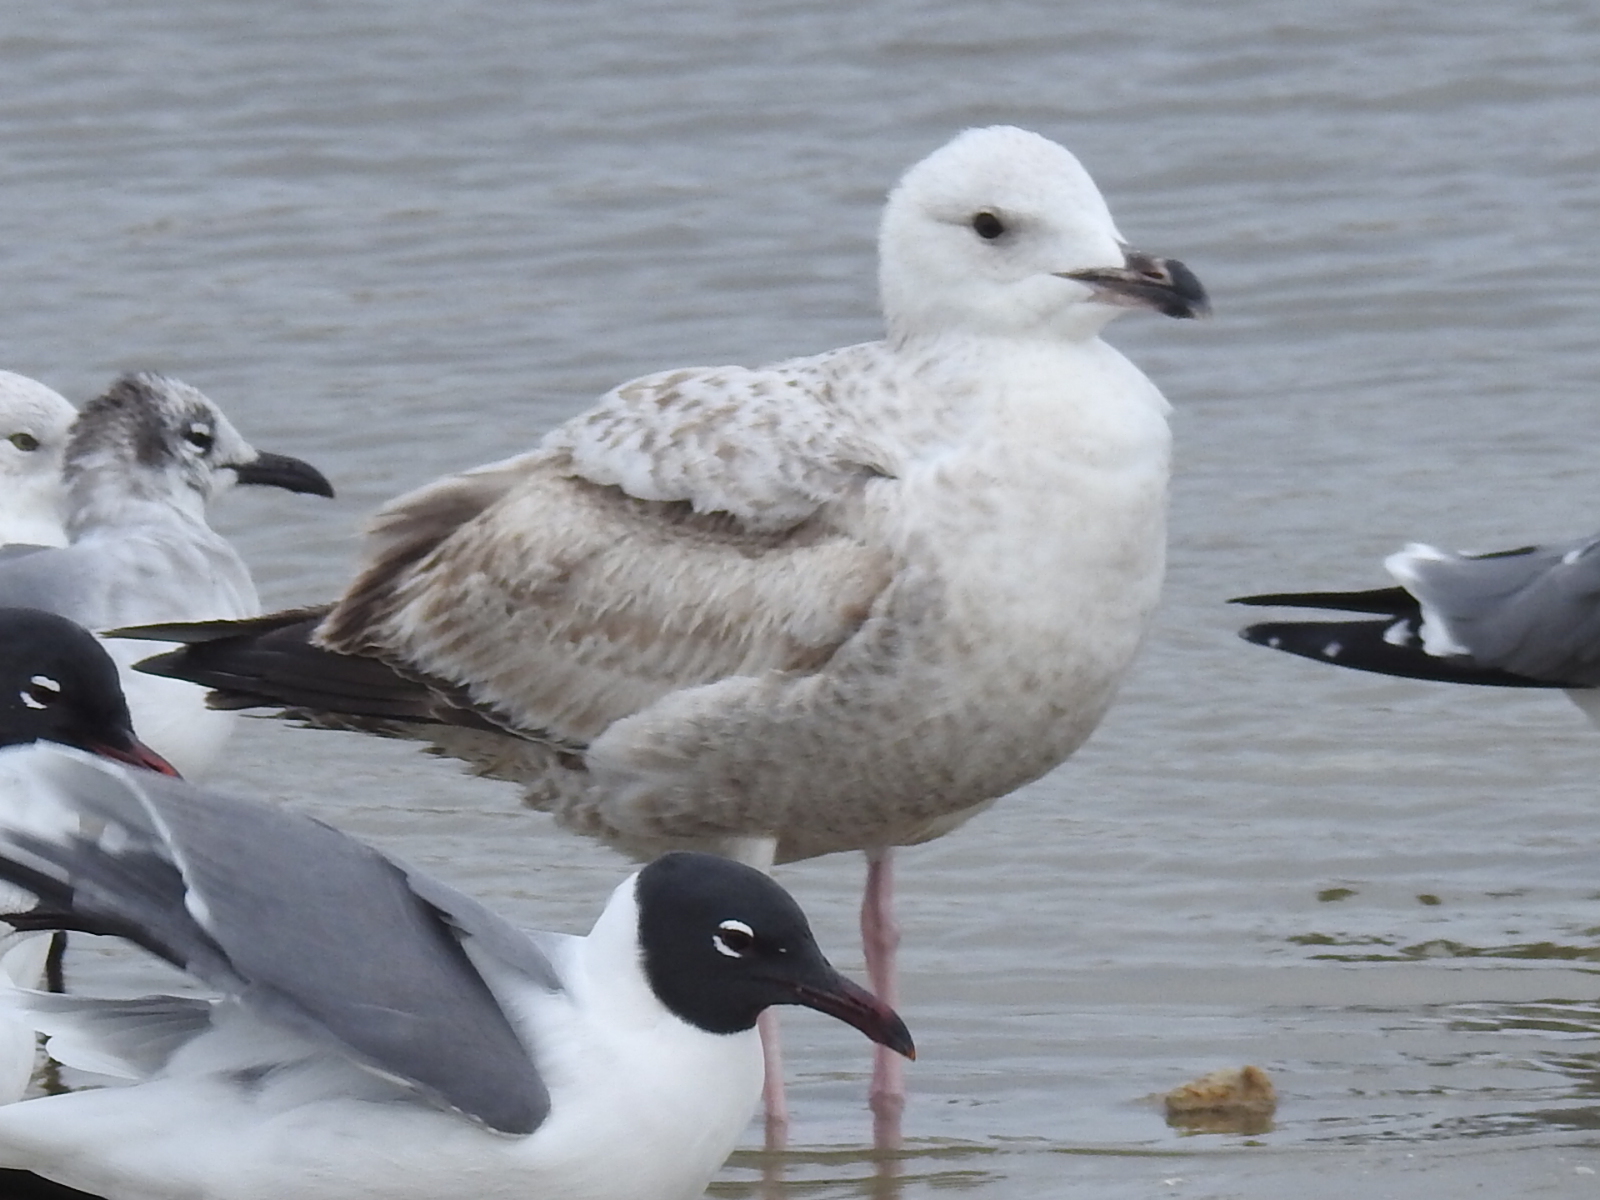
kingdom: Animalia
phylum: Chordata
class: Aves
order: Charadriiformes
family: Laridae
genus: Larus
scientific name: Larus argentatus
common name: Herring gull
